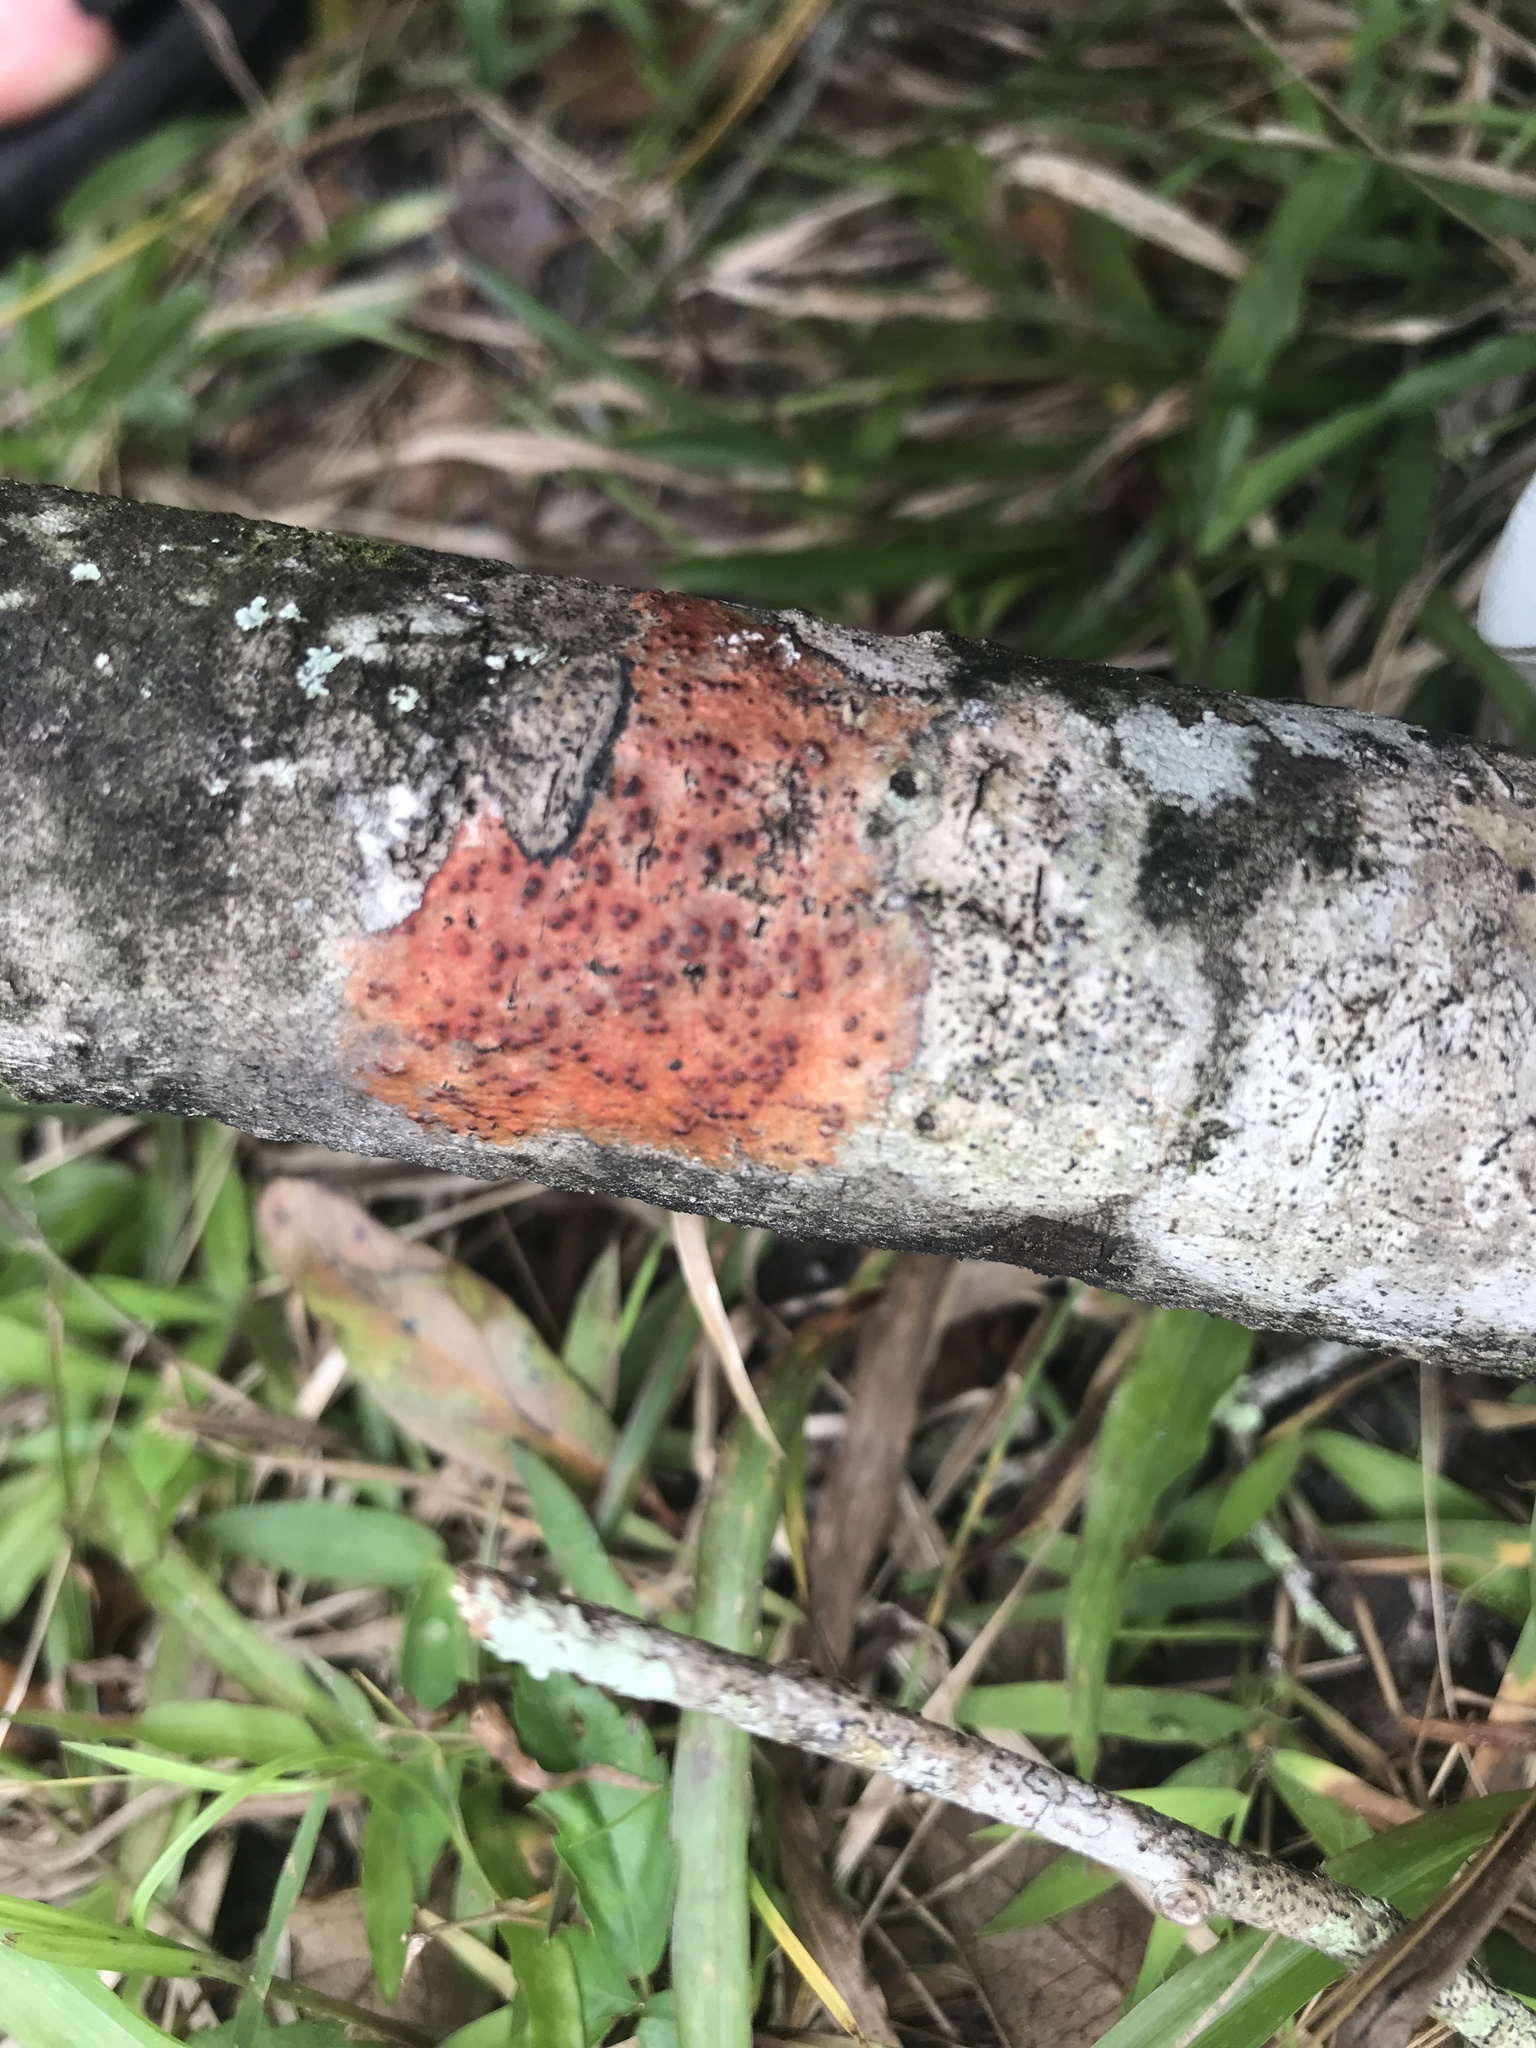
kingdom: Fungi
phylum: Ascomycota
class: Eurotiomycetes
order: Pyrenulales
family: Pyrenulaceae
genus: Pyrenula
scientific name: Pyrenula cruenta
